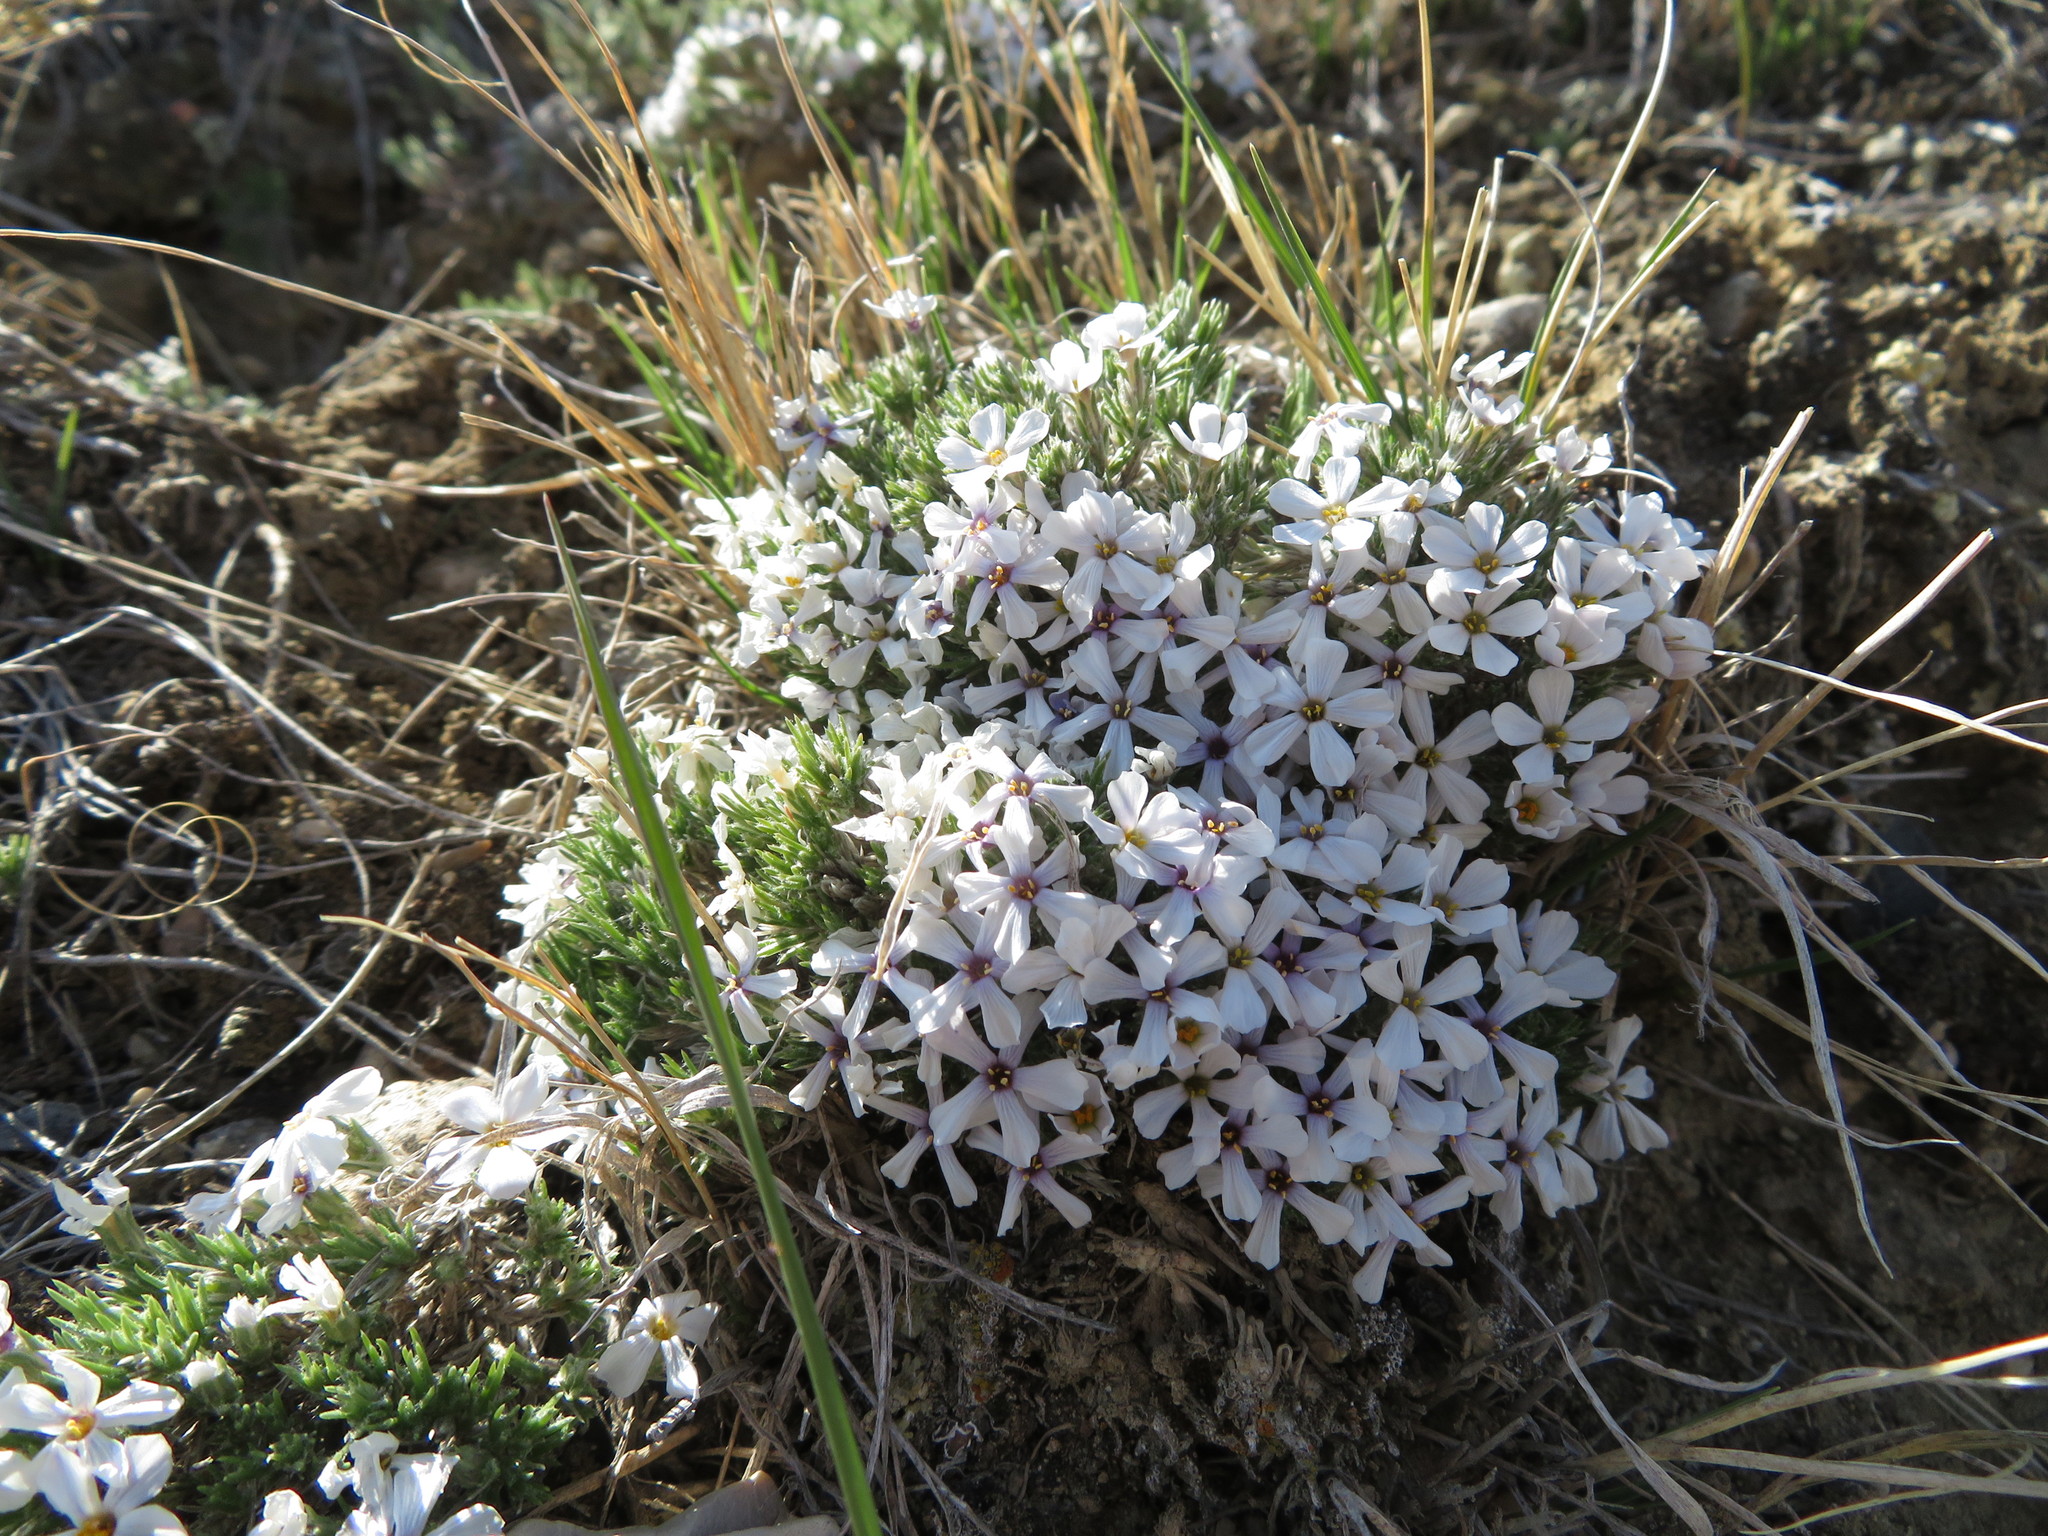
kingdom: Plantae
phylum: Tracheophyta
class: Magnoliopsida
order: Ericales
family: Polemoniaceae
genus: Phlox
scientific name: Phlox hoodii
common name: Moss phlox
